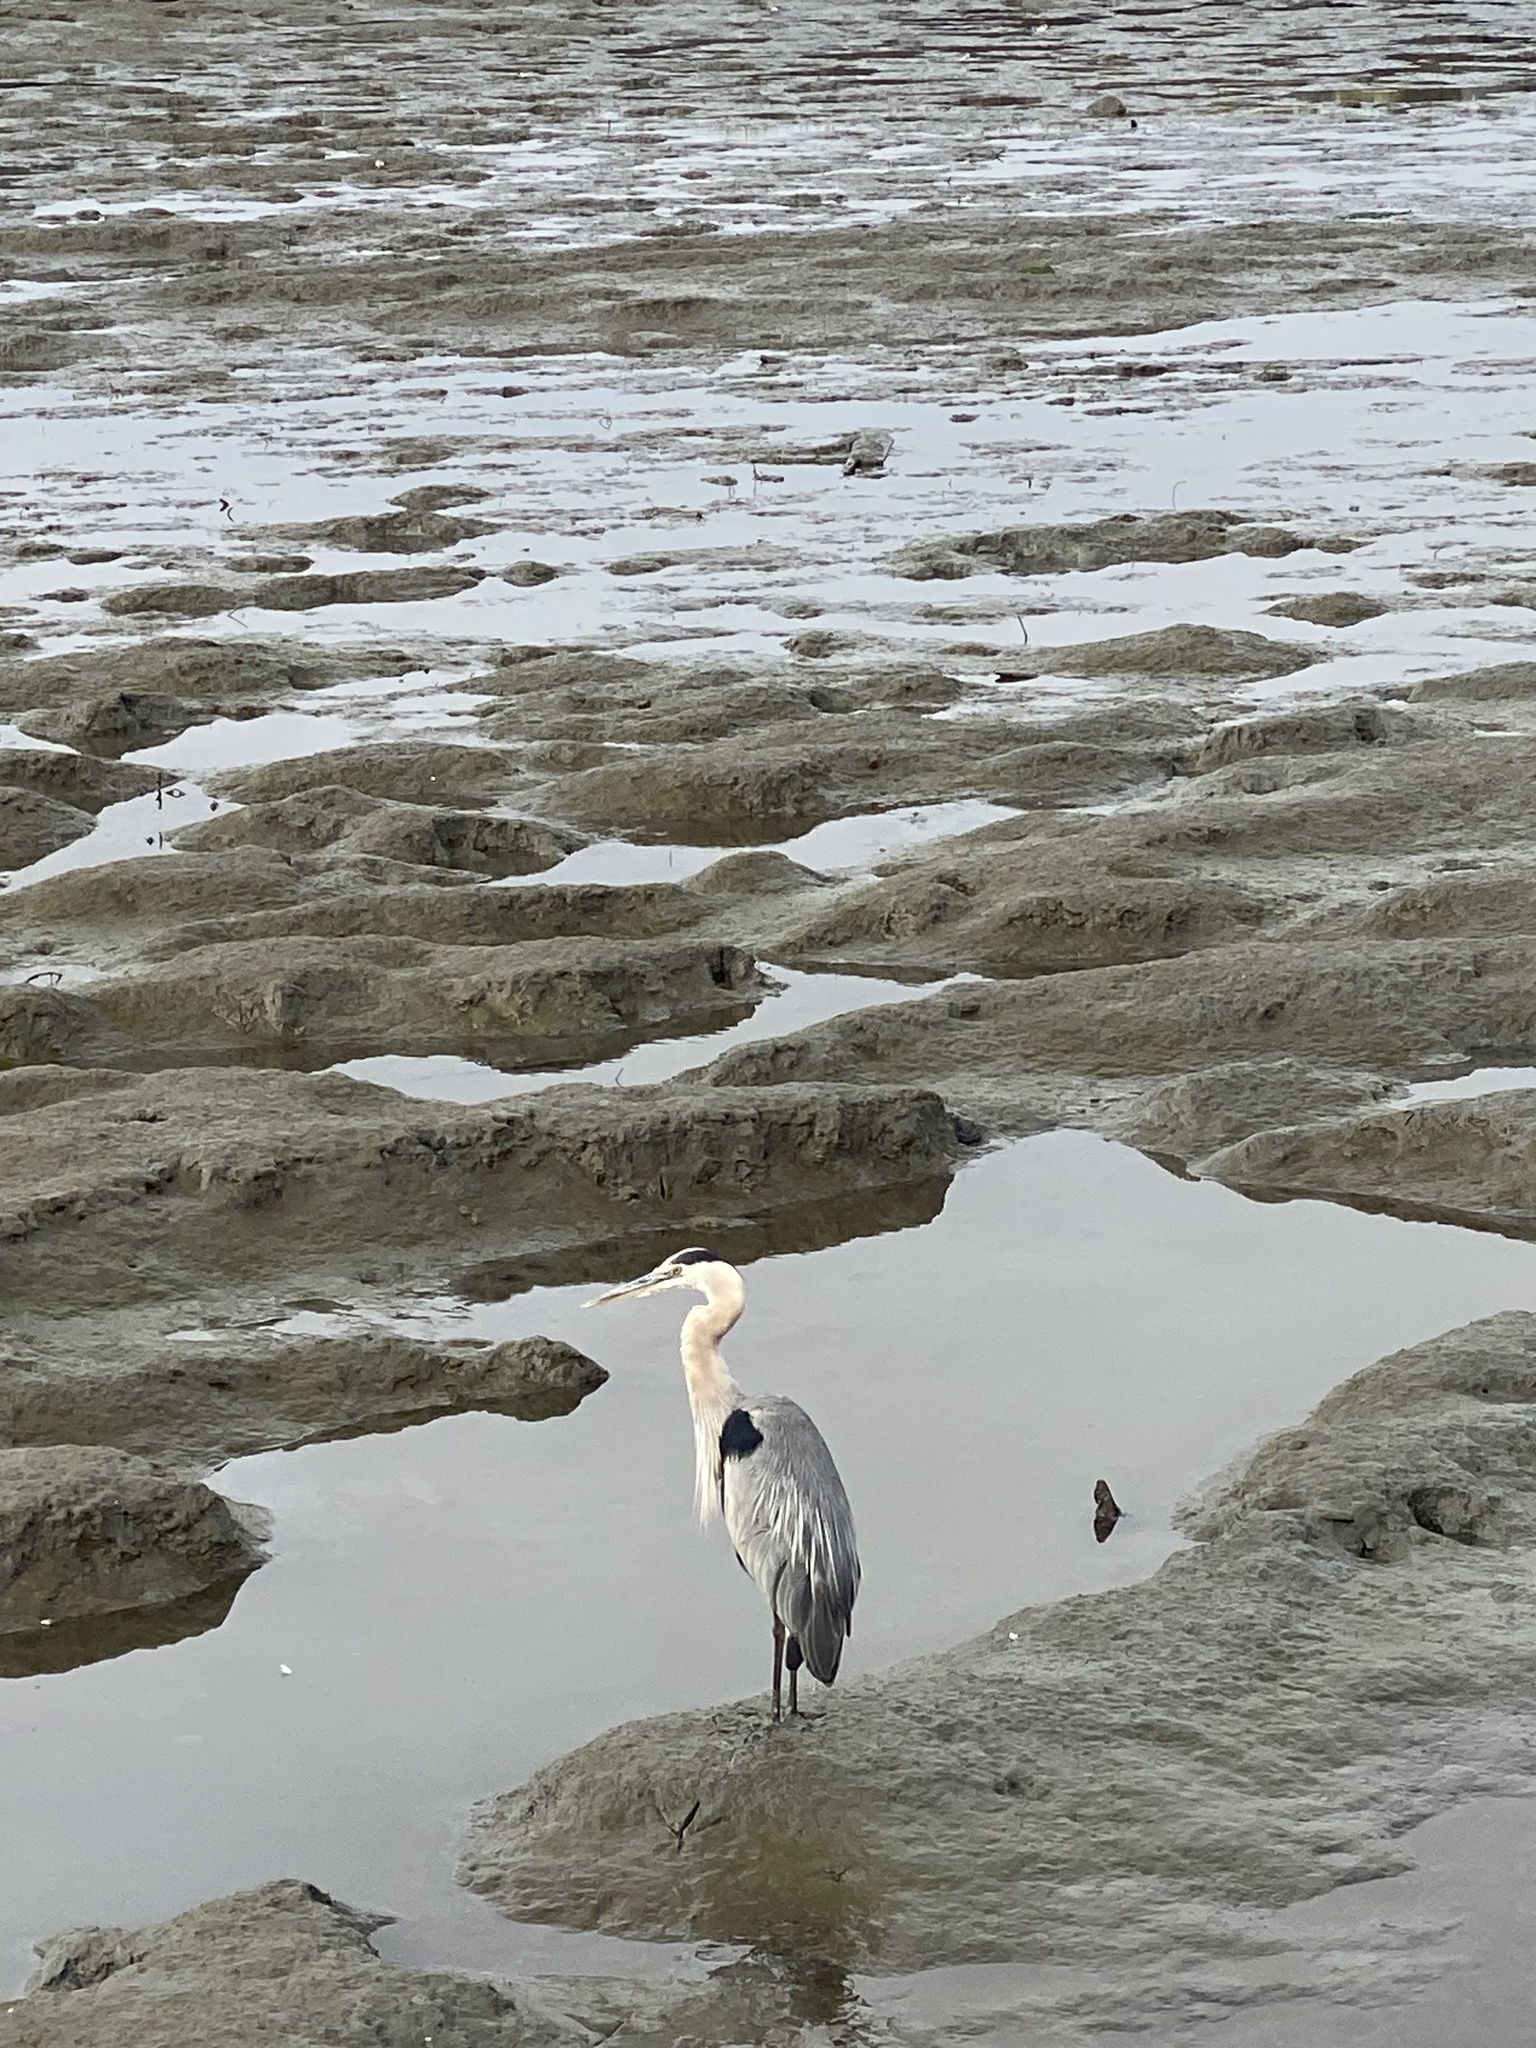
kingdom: Animalia
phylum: Chordata
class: Aves
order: Pelecaniformes
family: Ardeidae
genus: Ardea
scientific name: Ardea herodias
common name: Great blue heron
